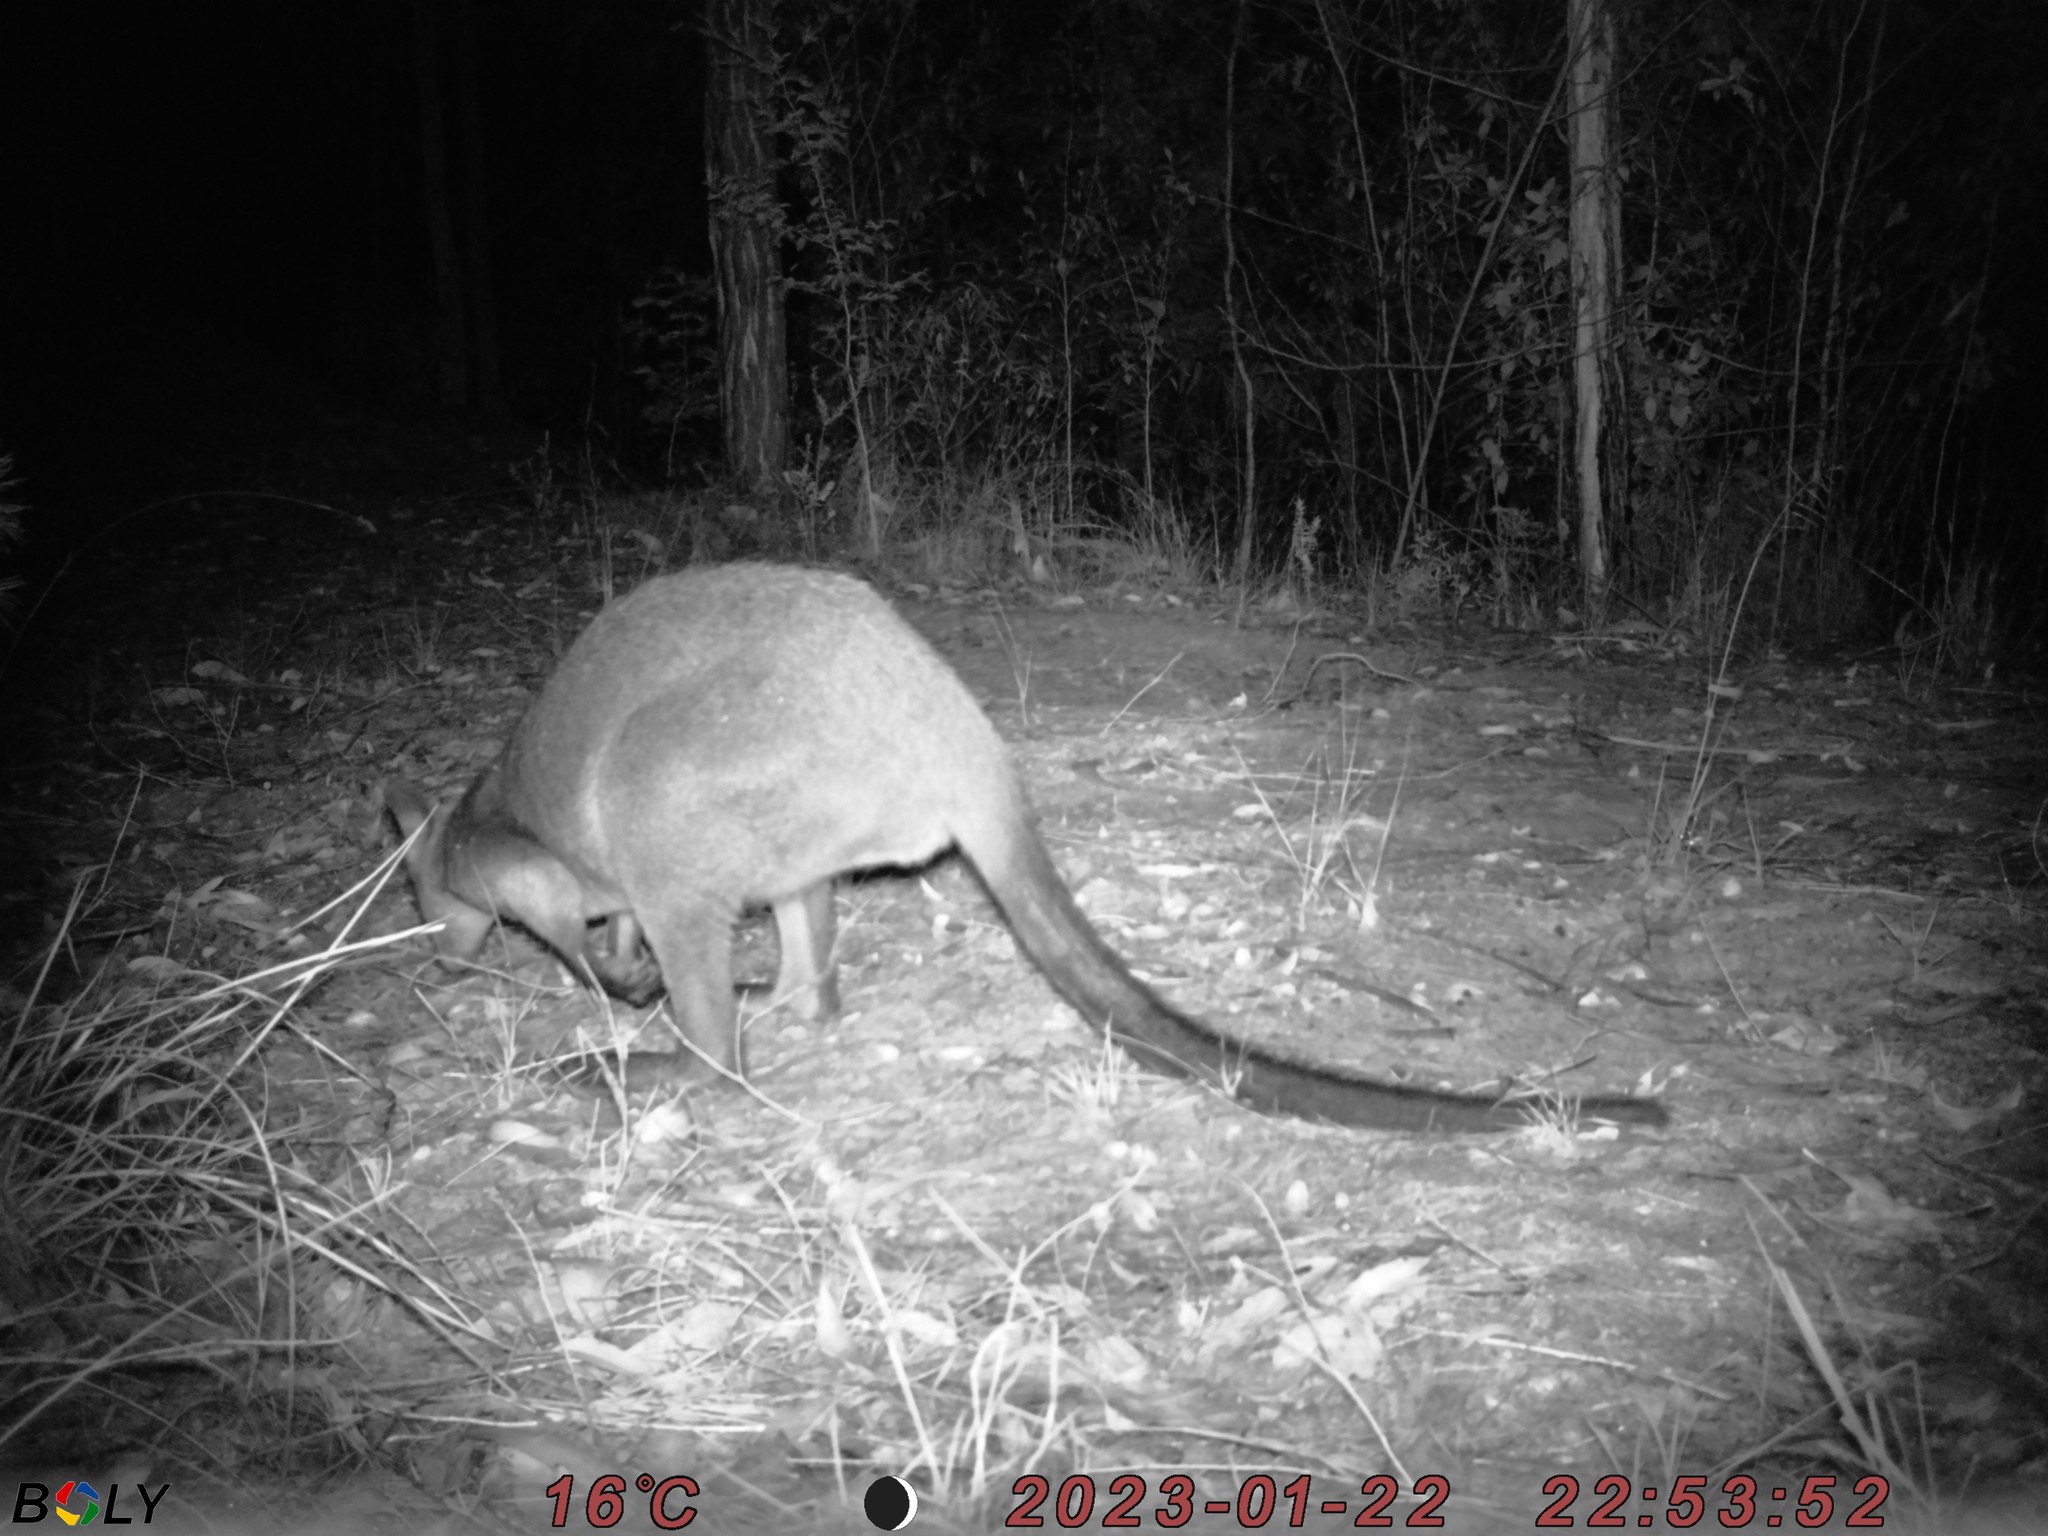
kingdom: Animalia
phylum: Chordata
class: Mammalia
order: Diprotodontia
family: Macropodidae
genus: Wallabia
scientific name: Wallabia bicolor
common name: Swamp wallaby
